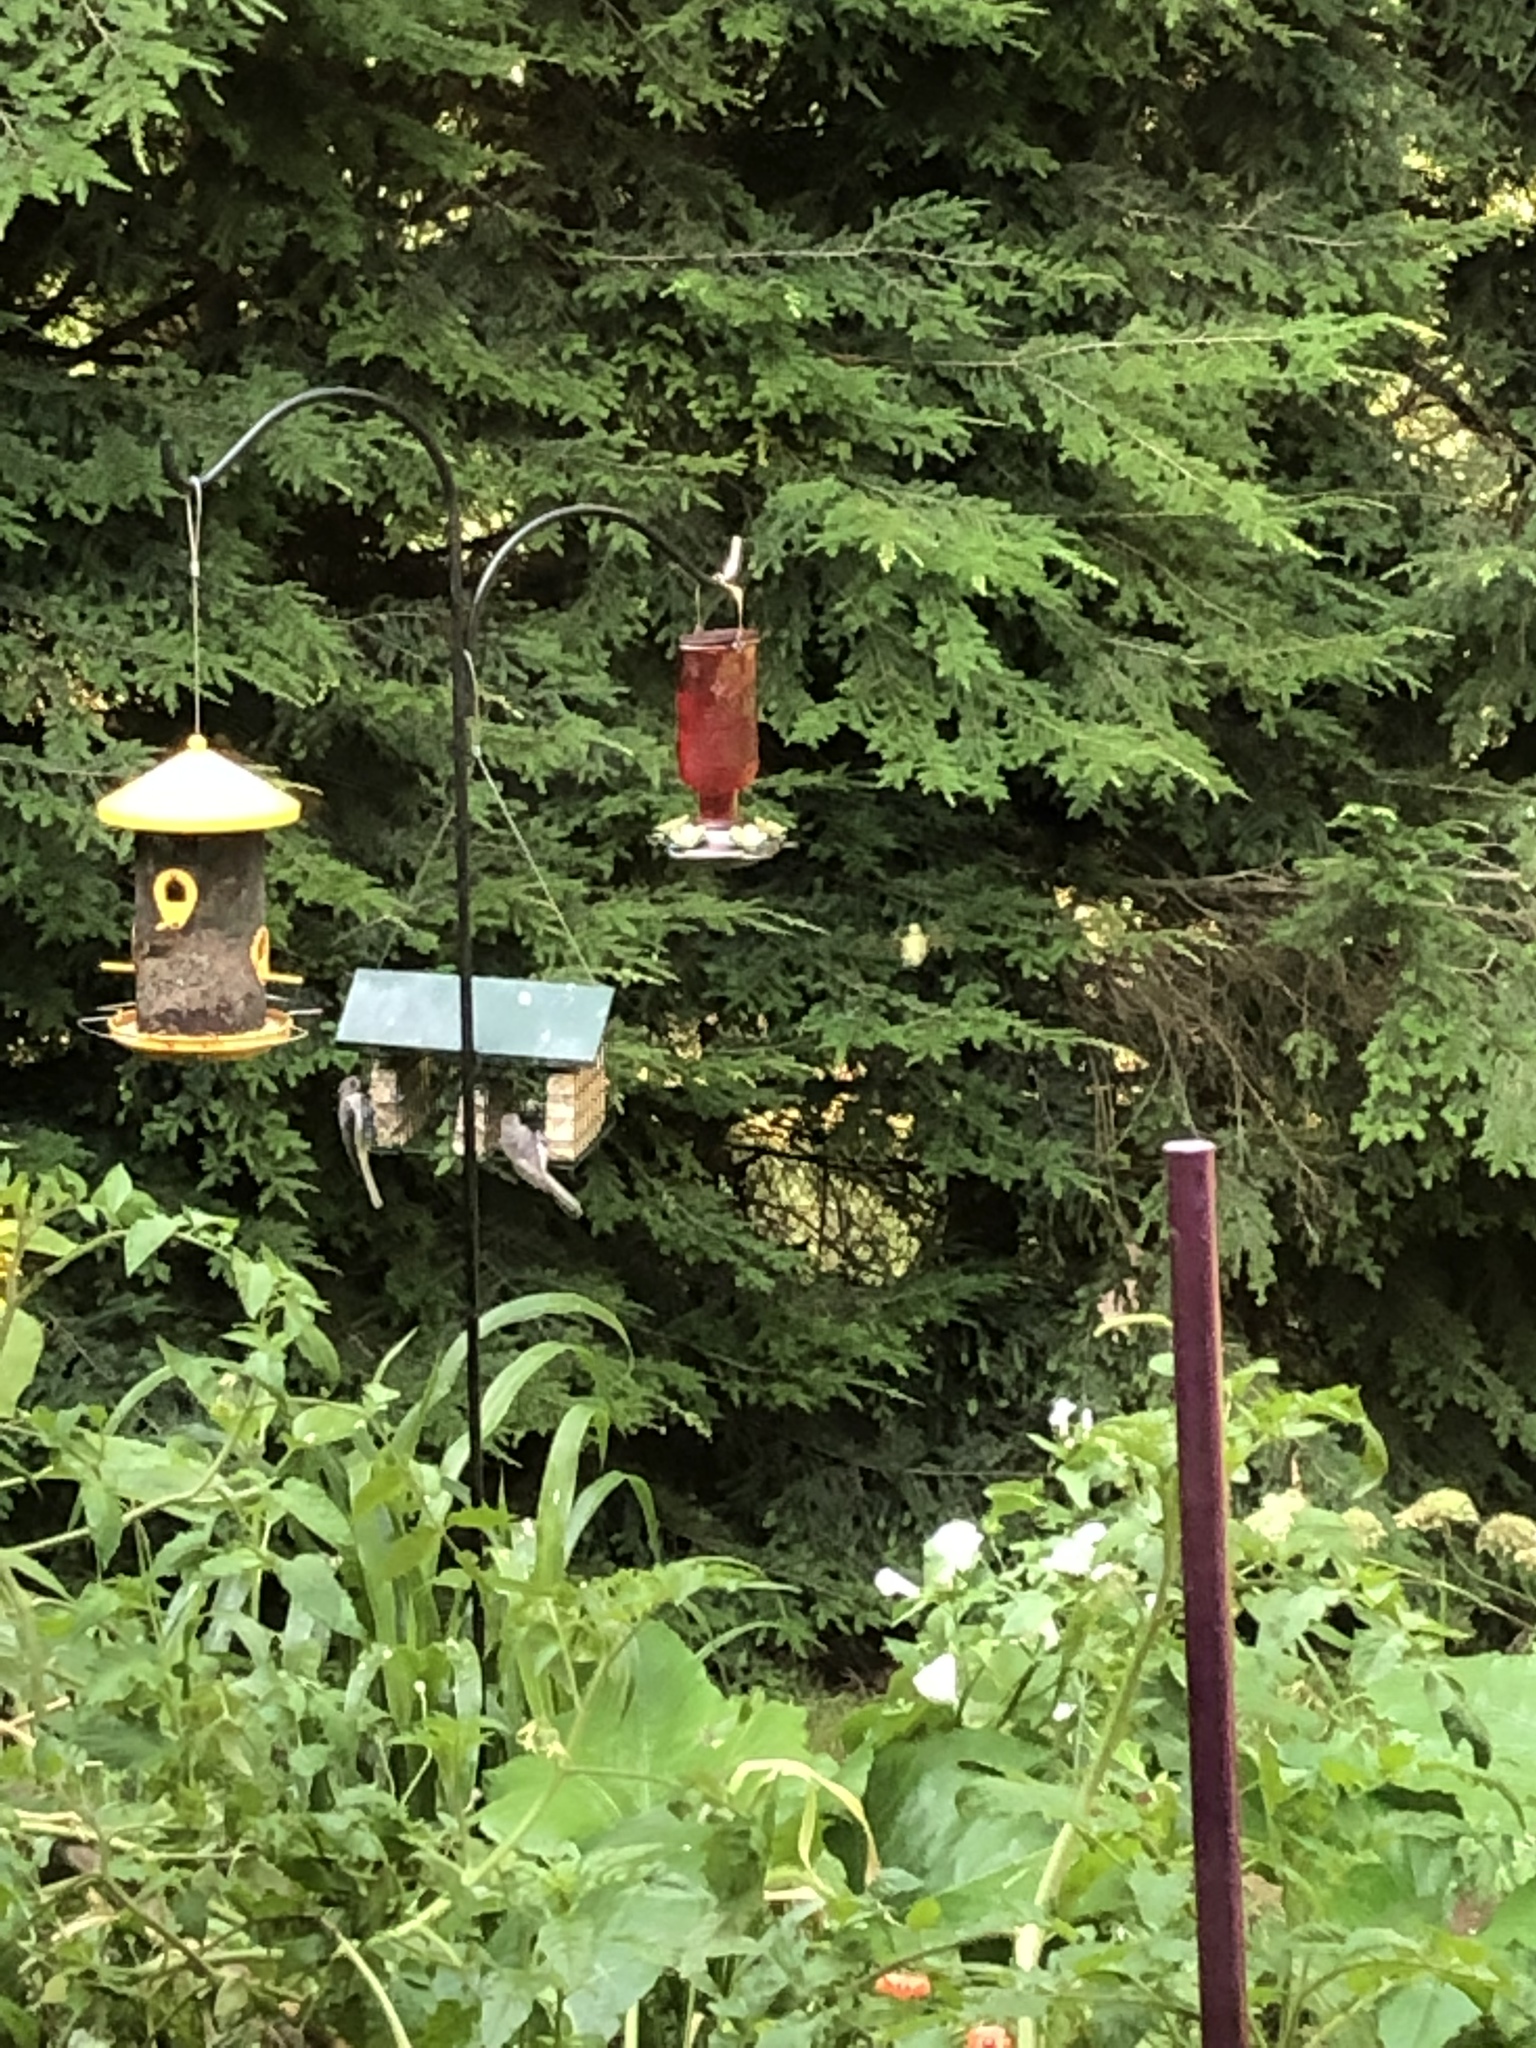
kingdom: Animalia
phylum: Chordata
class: Aves
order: Apodiformes
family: Trochilidae
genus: Archilochus
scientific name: Archilochus colubris
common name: Ruby-throated hummingbird
